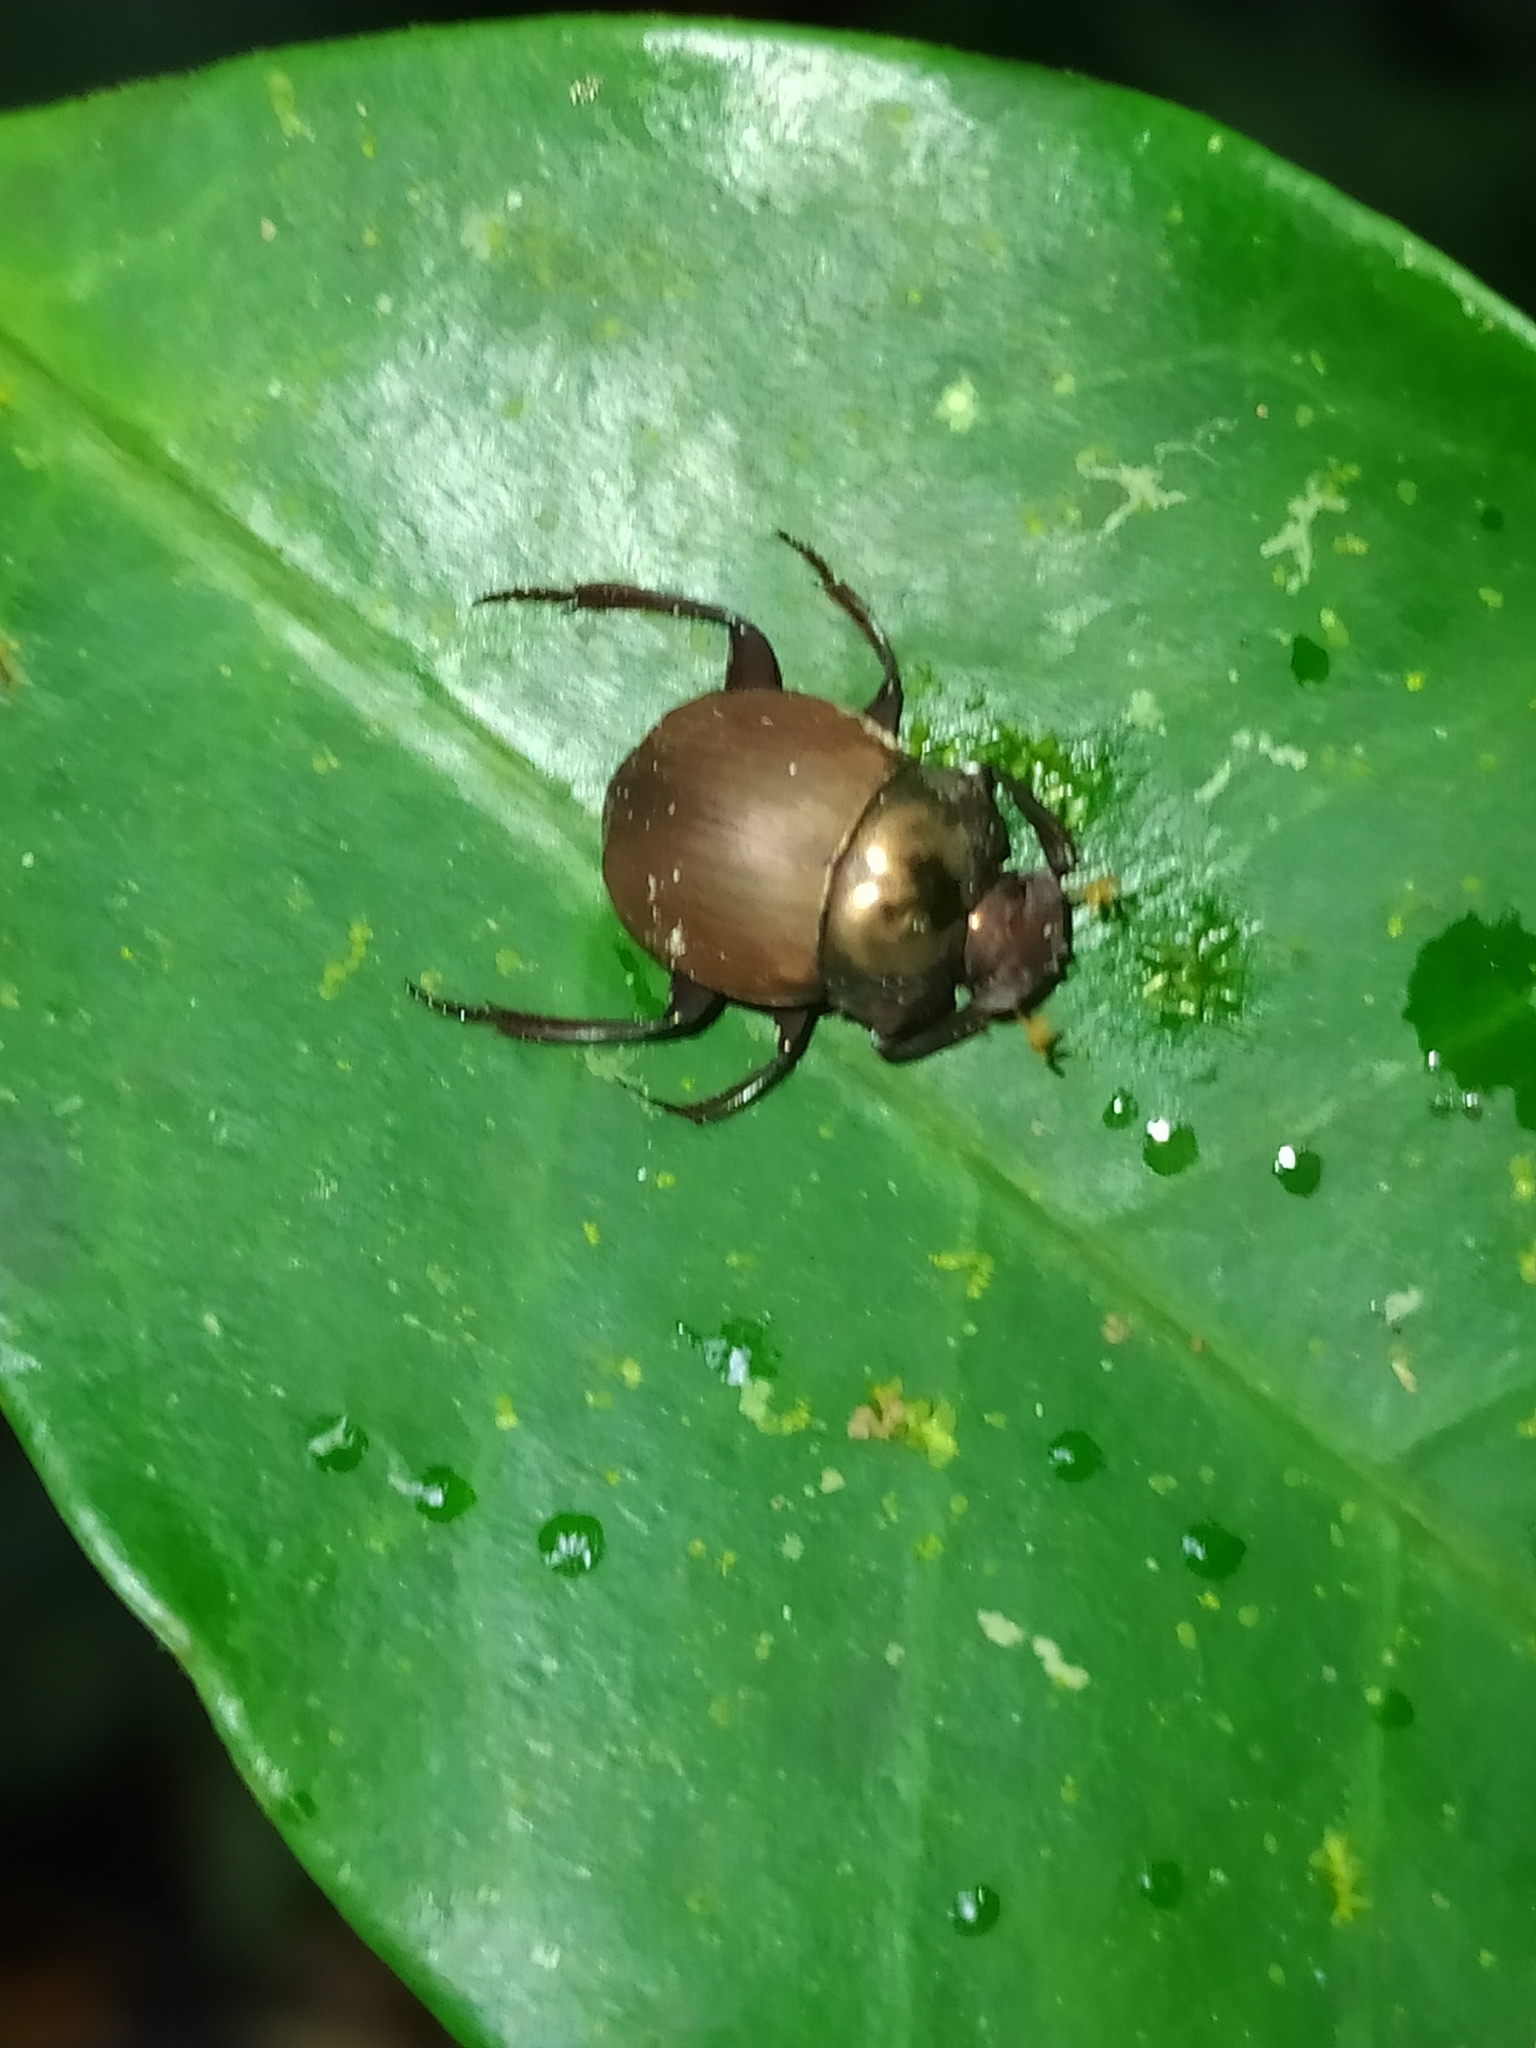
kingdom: Animalia
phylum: Arthropoda
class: Insecta
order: Coleoptera
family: Scarabaeidae
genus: Hansreia
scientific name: Hansreia affinis
